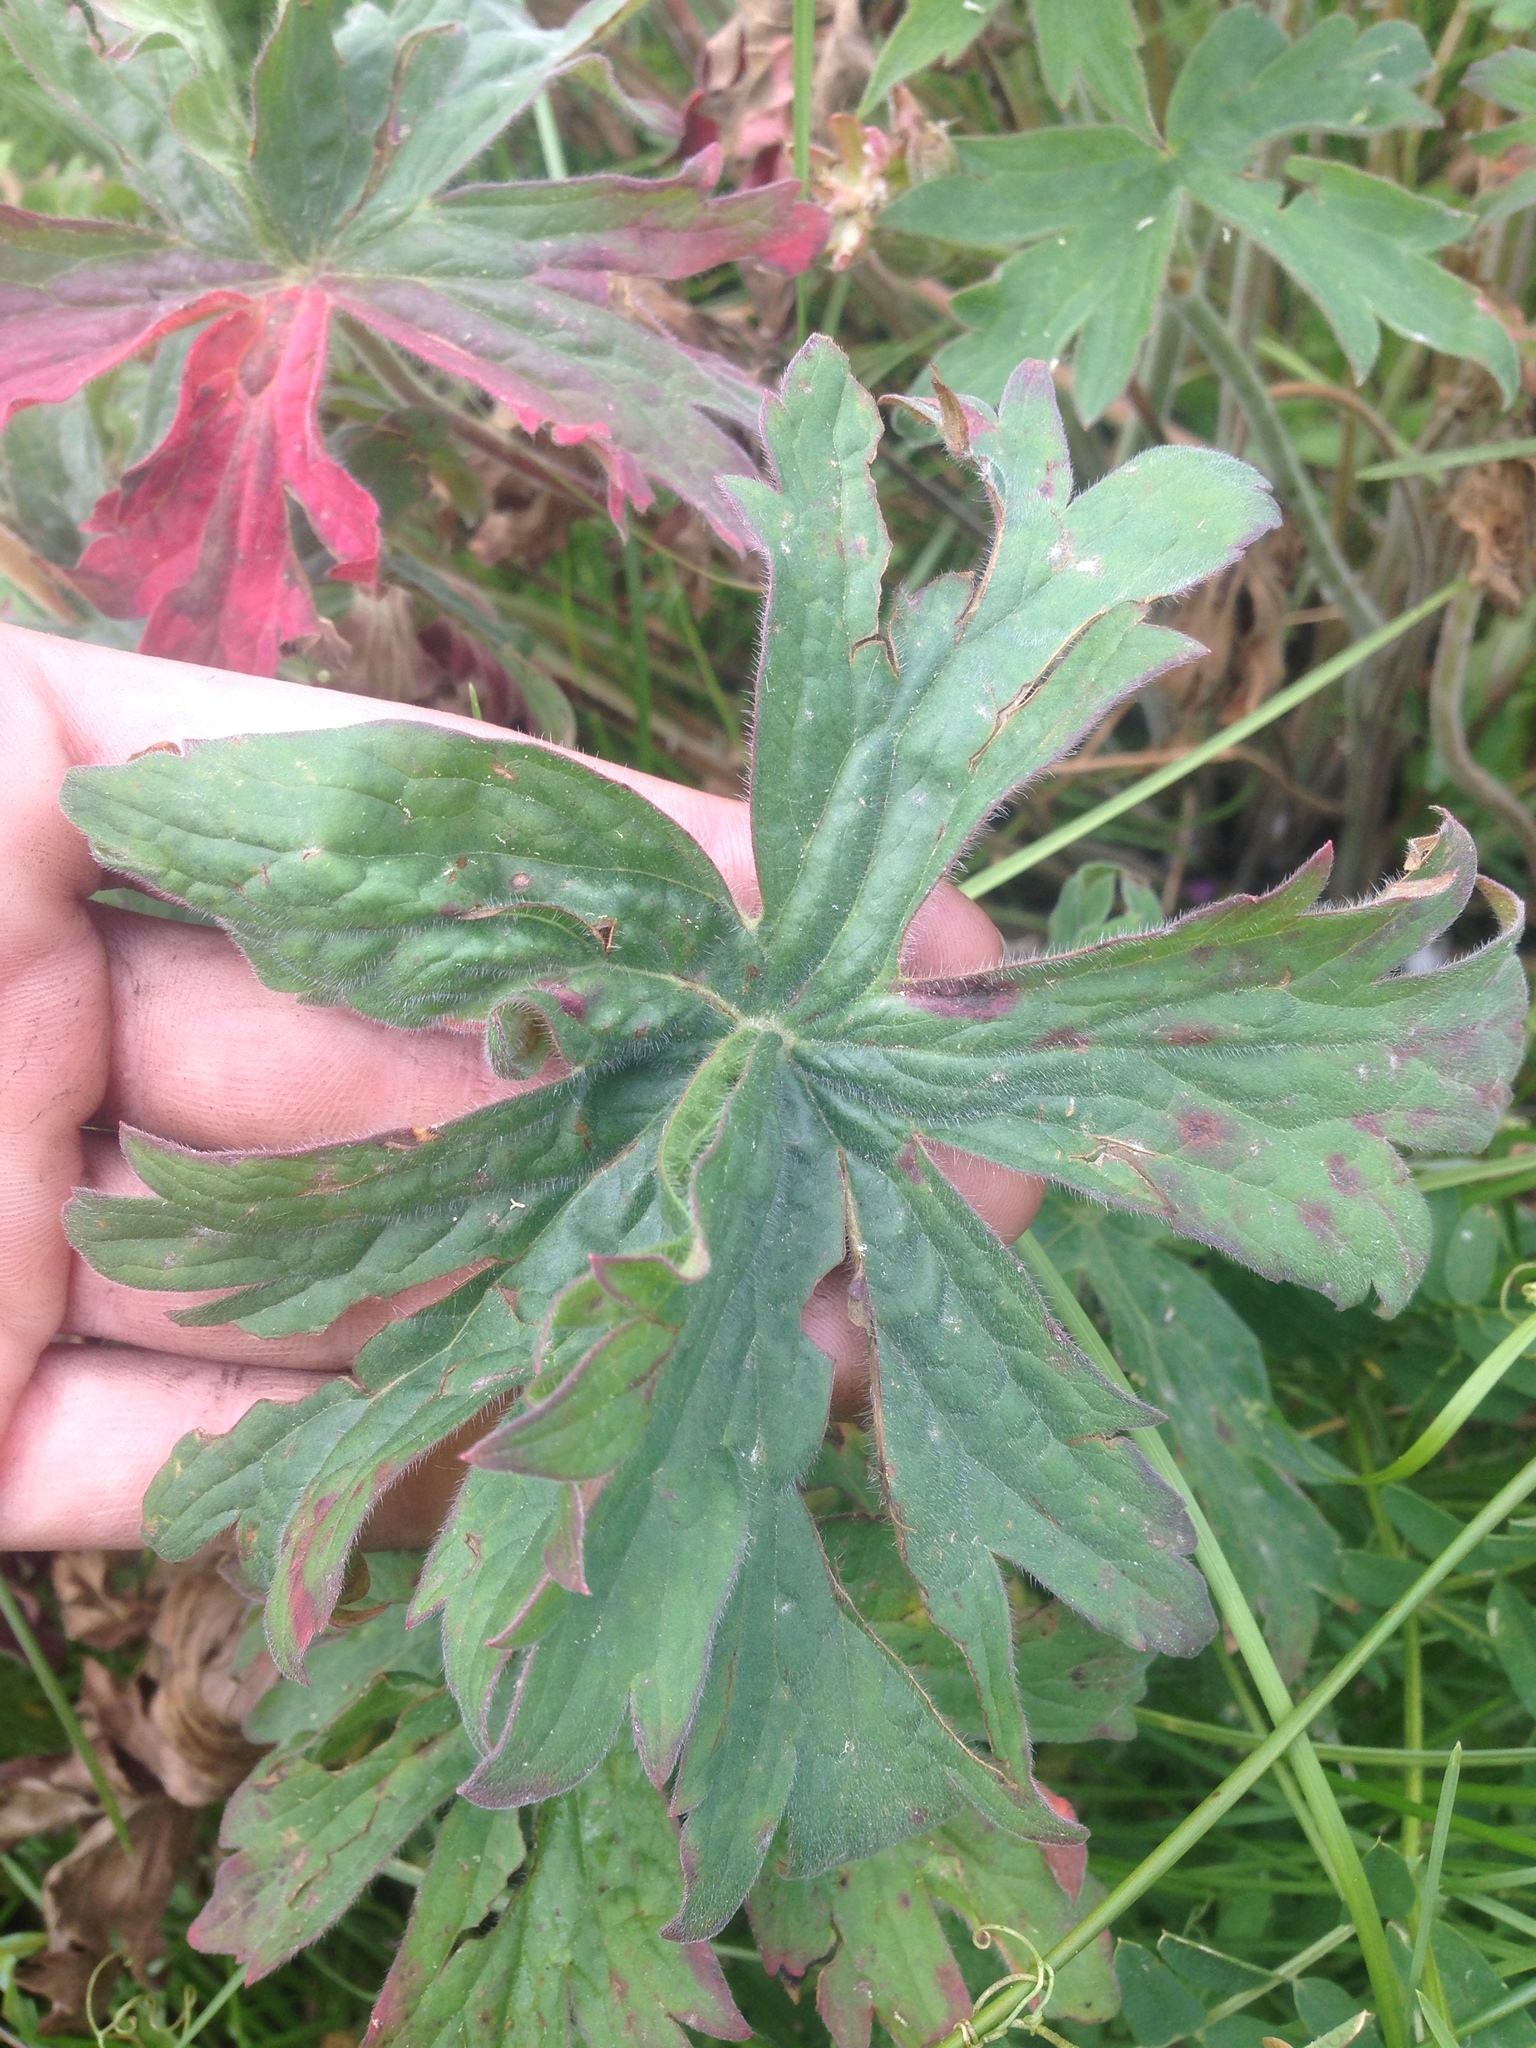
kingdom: Plantae
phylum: Tracheophyta
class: Magnoliopsida
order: Geraniales
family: Geraniaceae
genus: Geranium
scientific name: Geranium viscosissimum
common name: Purple geranium
